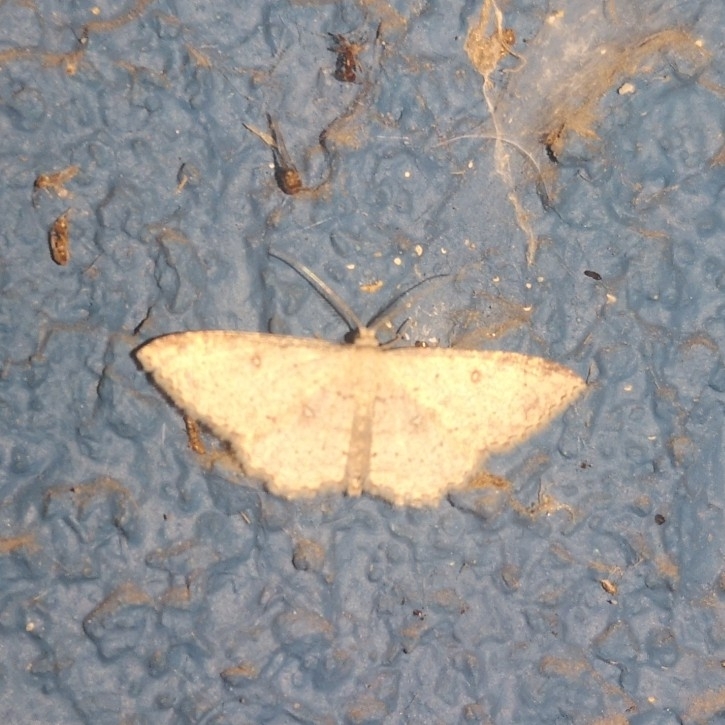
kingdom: Animalia
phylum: Arthropoda
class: Insecta
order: Lepidoptera
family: Geometridae
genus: Cyclophora
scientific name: Cyclophora nanaria
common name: Cankerworm
